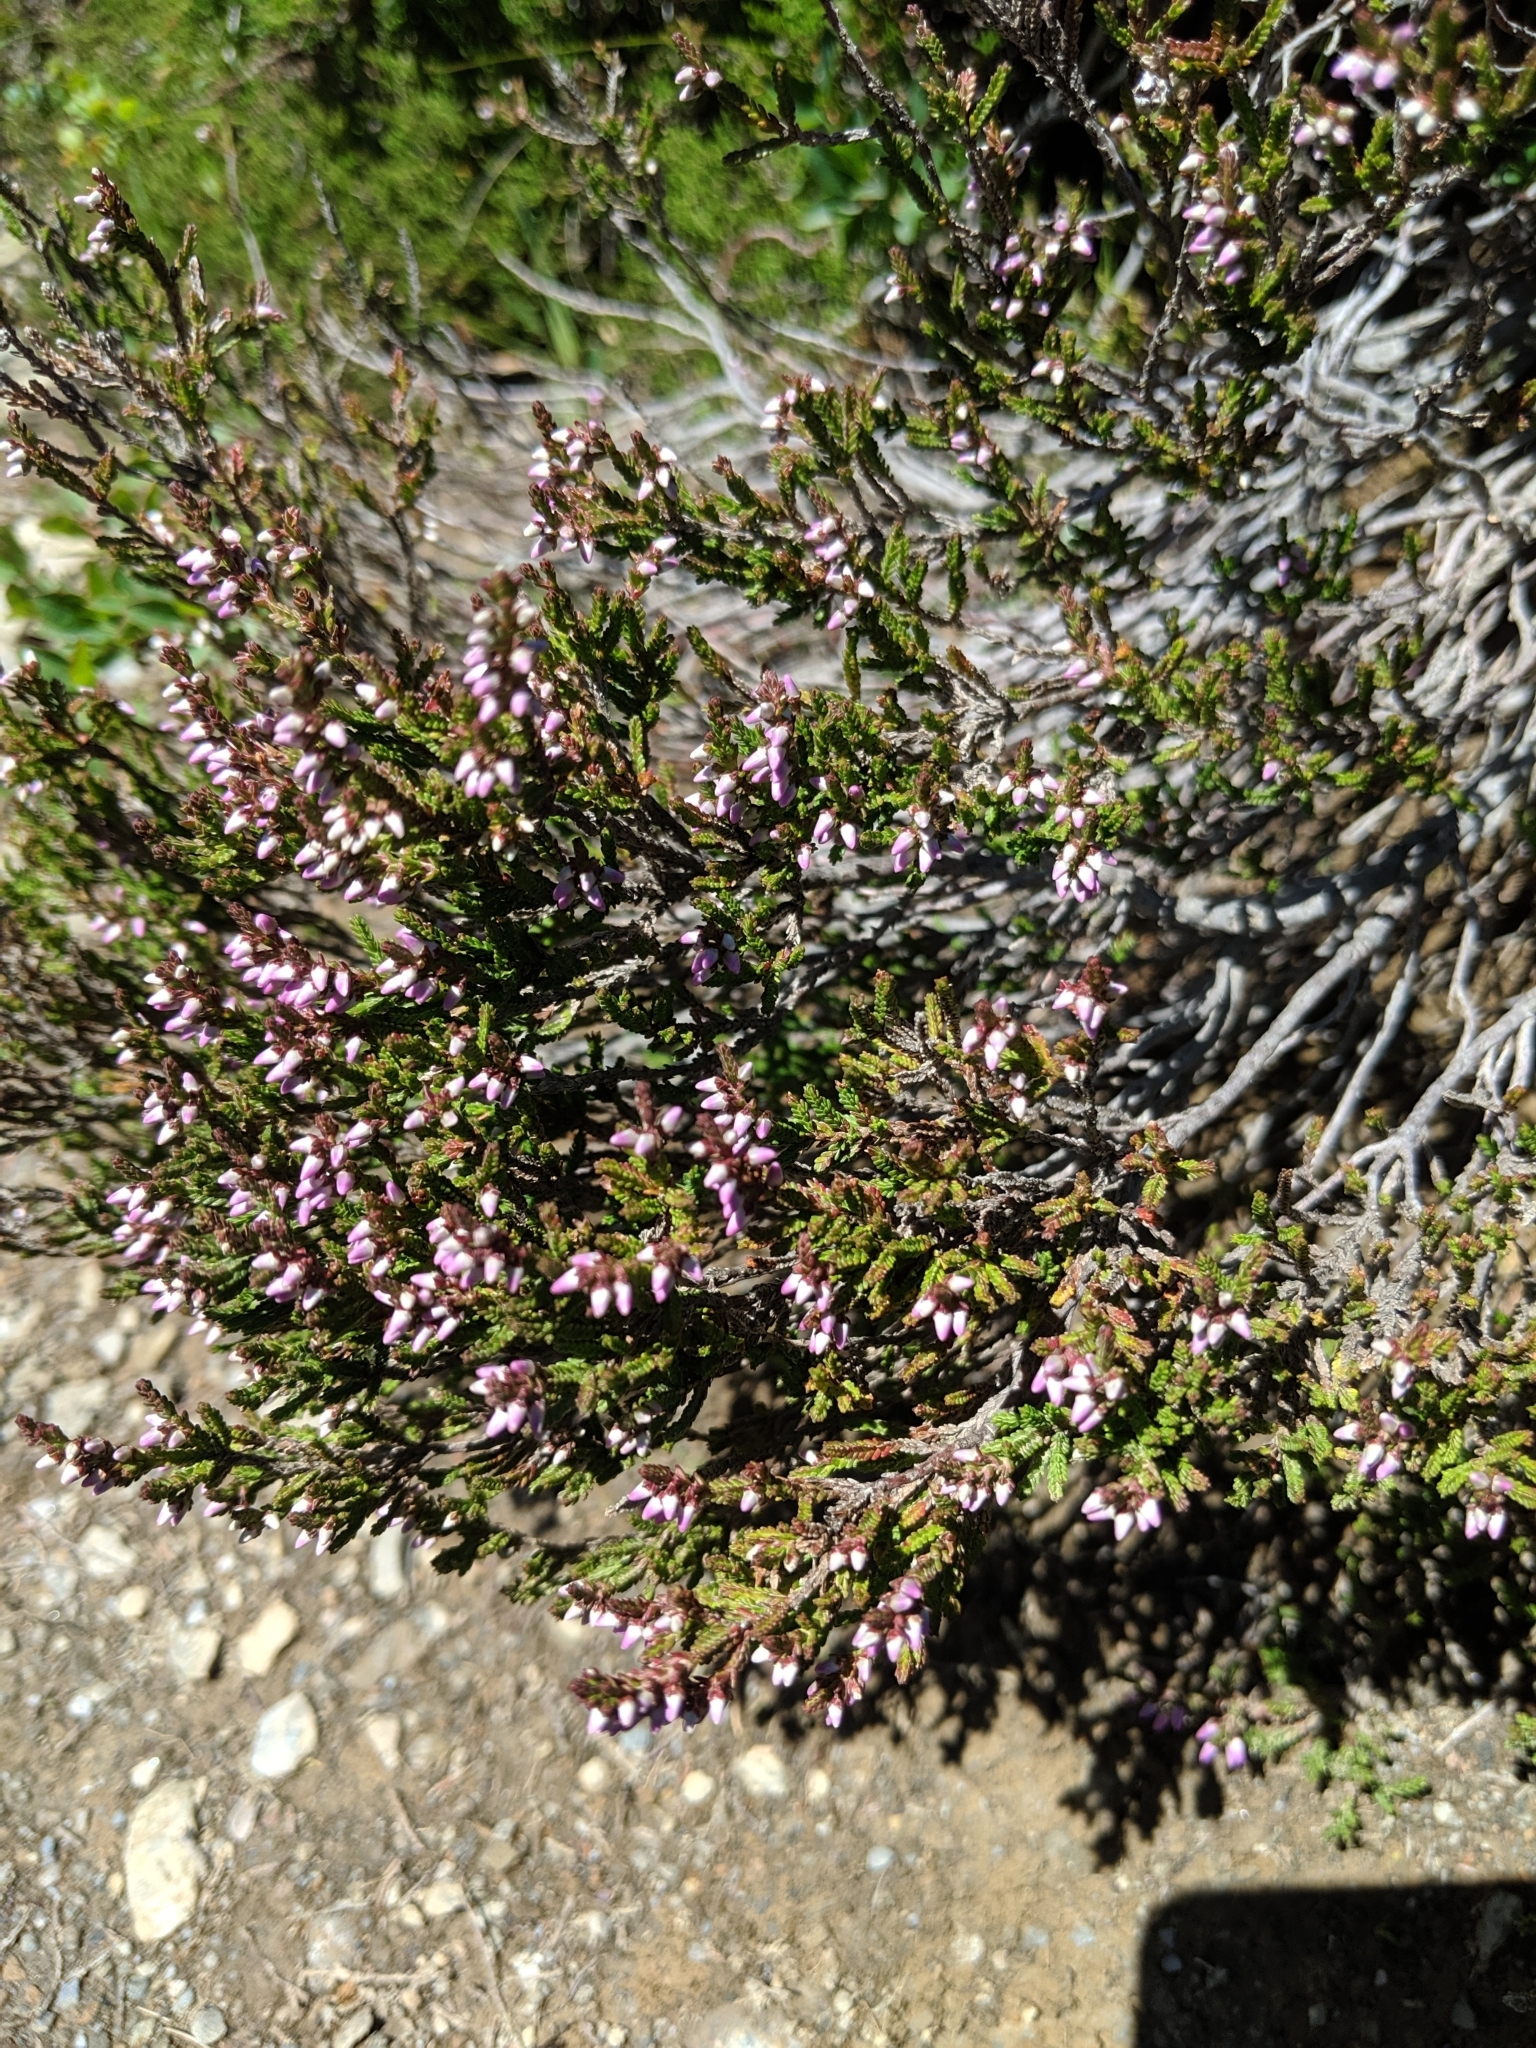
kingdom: Plantae
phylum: Tracheophyta
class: Magnoliopsida
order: Ericales
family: Ericaceae
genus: Calluna
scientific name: Calluna vulgaris
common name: Heather
